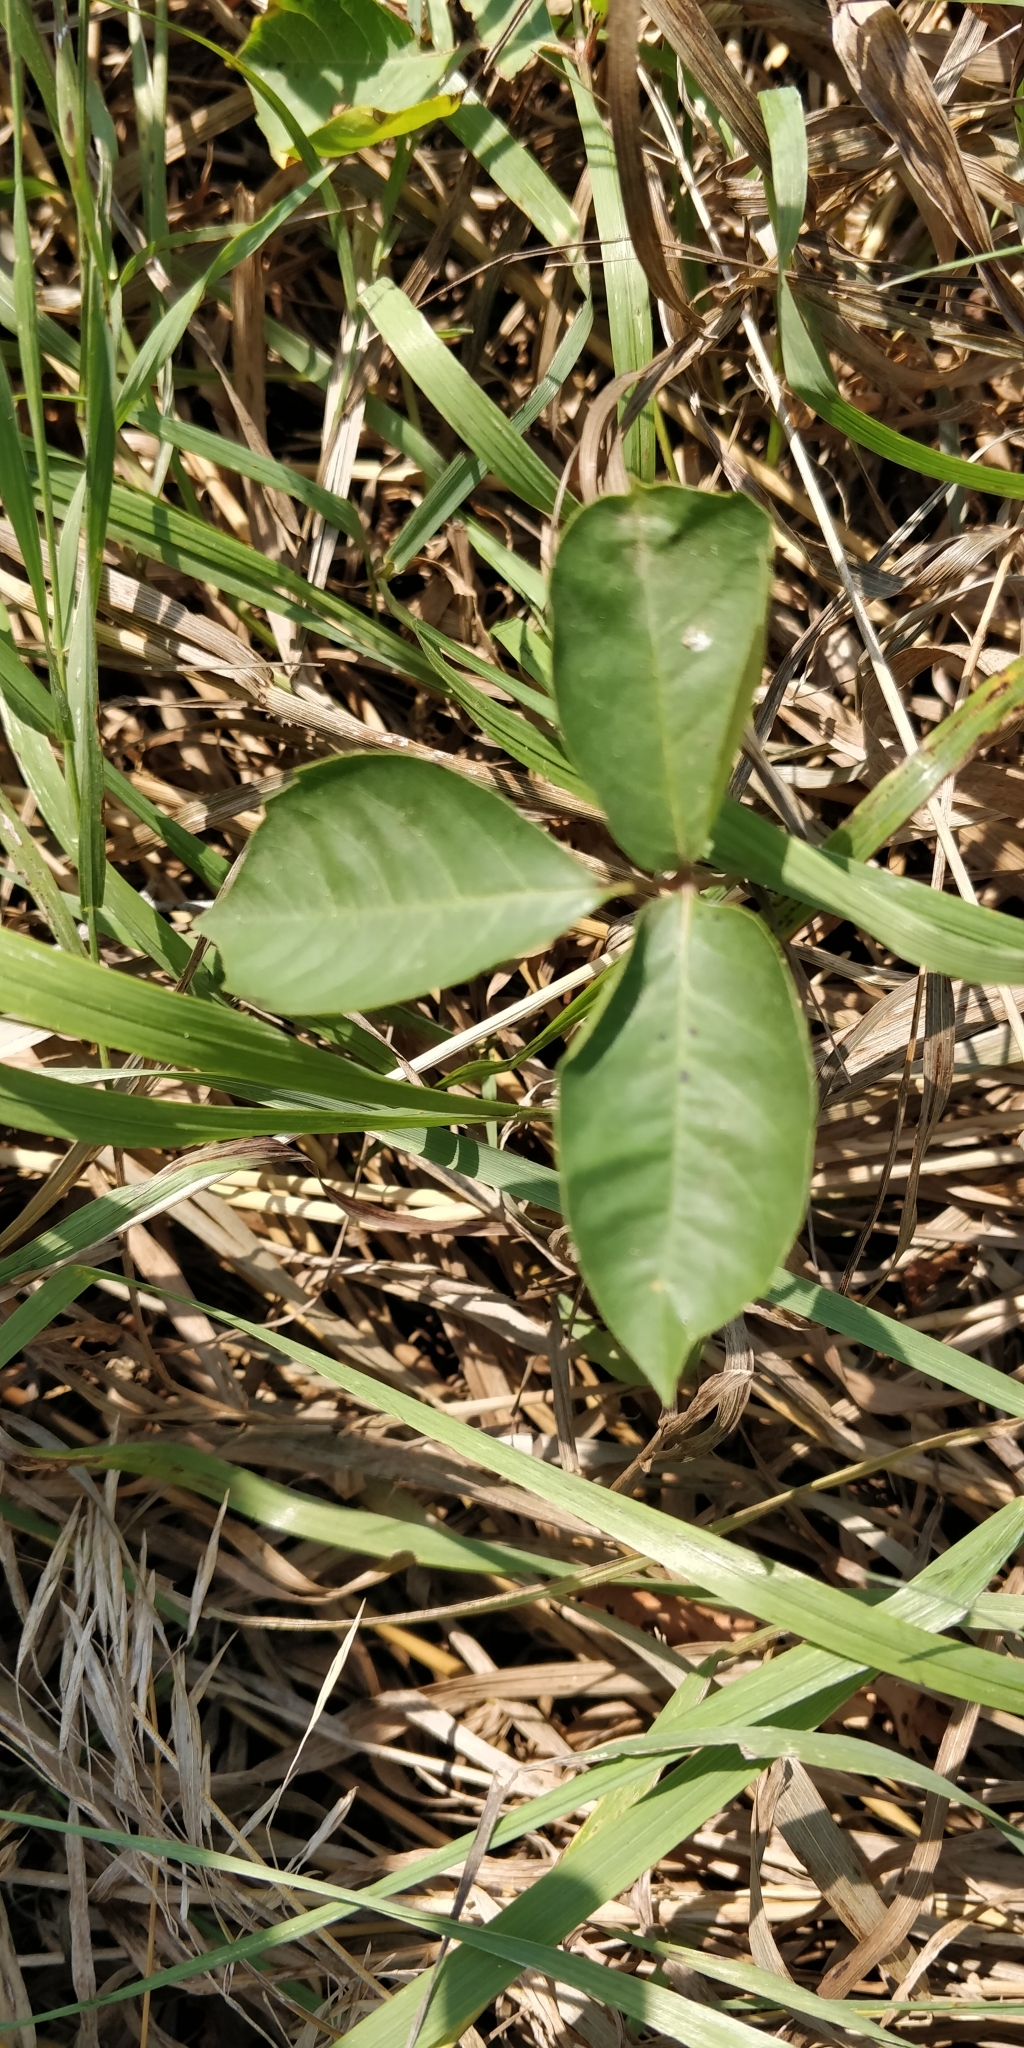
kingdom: Plantae
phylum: Tracheophyta
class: Magnoliopsida
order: Sapindales
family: Anacardiaceae
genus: Toxicodendron
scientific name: Toxicodendron rydbergii
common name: Rydberg's poison-ivy
